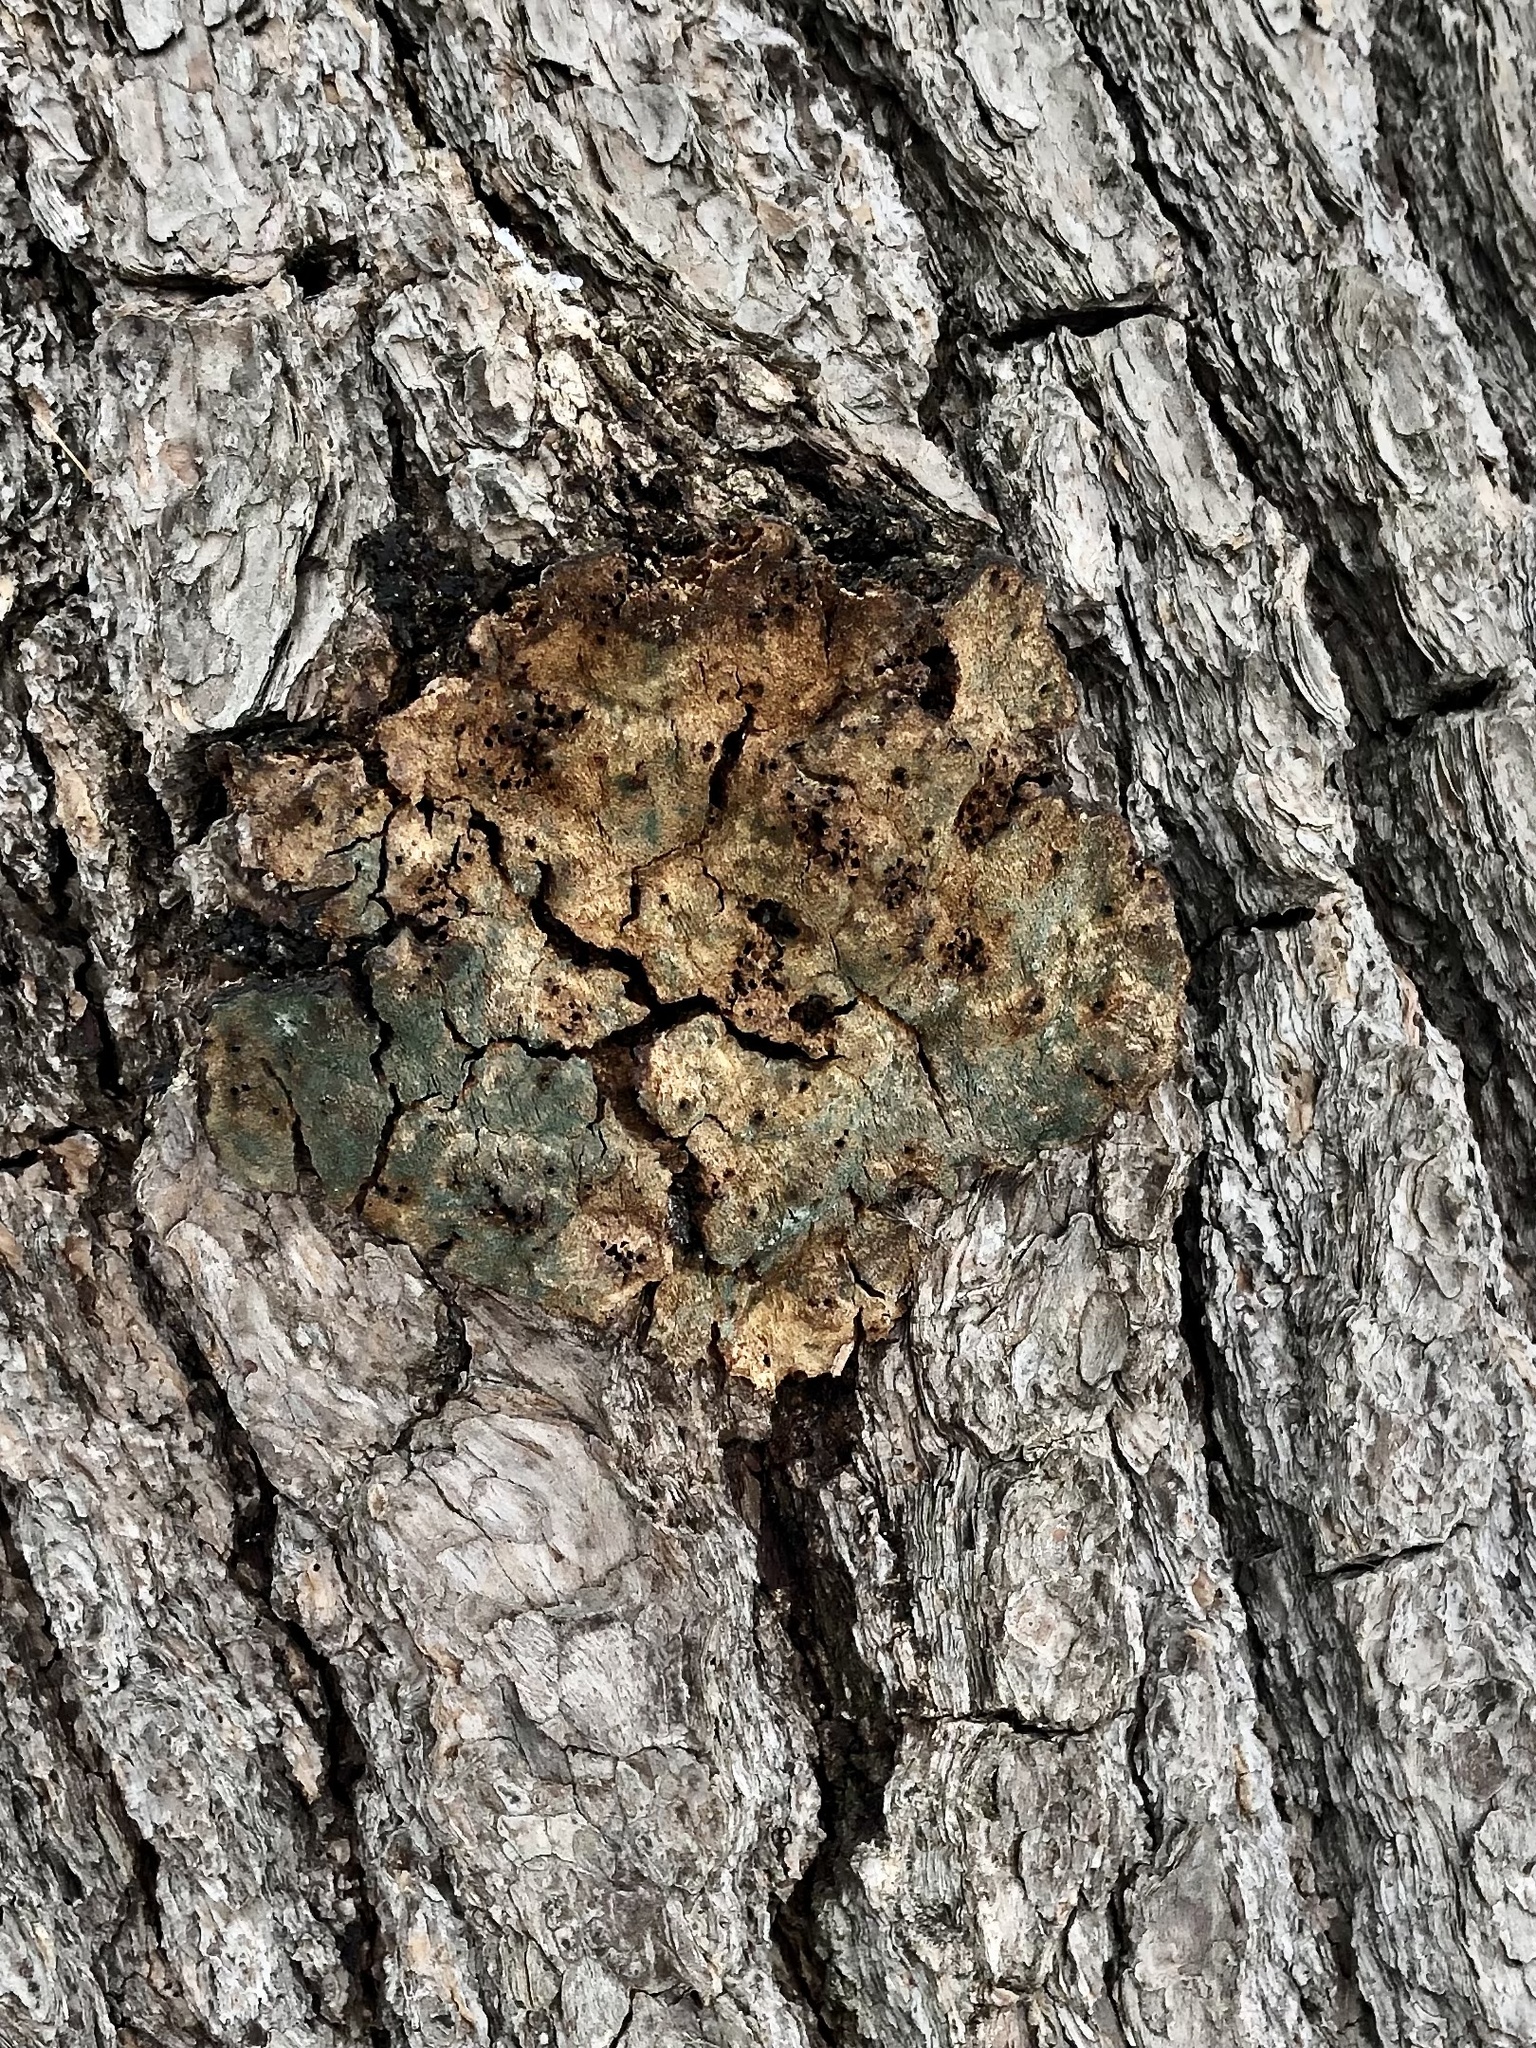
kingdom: Bacteria
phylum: Proteobacteria
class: Alphaproteobacteria
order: Rhizobiales
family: Rhizobiaceae
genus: Rhizobium
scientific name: Rhizobium Agrobacterium radiobacter
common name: Bacterial crown gall
